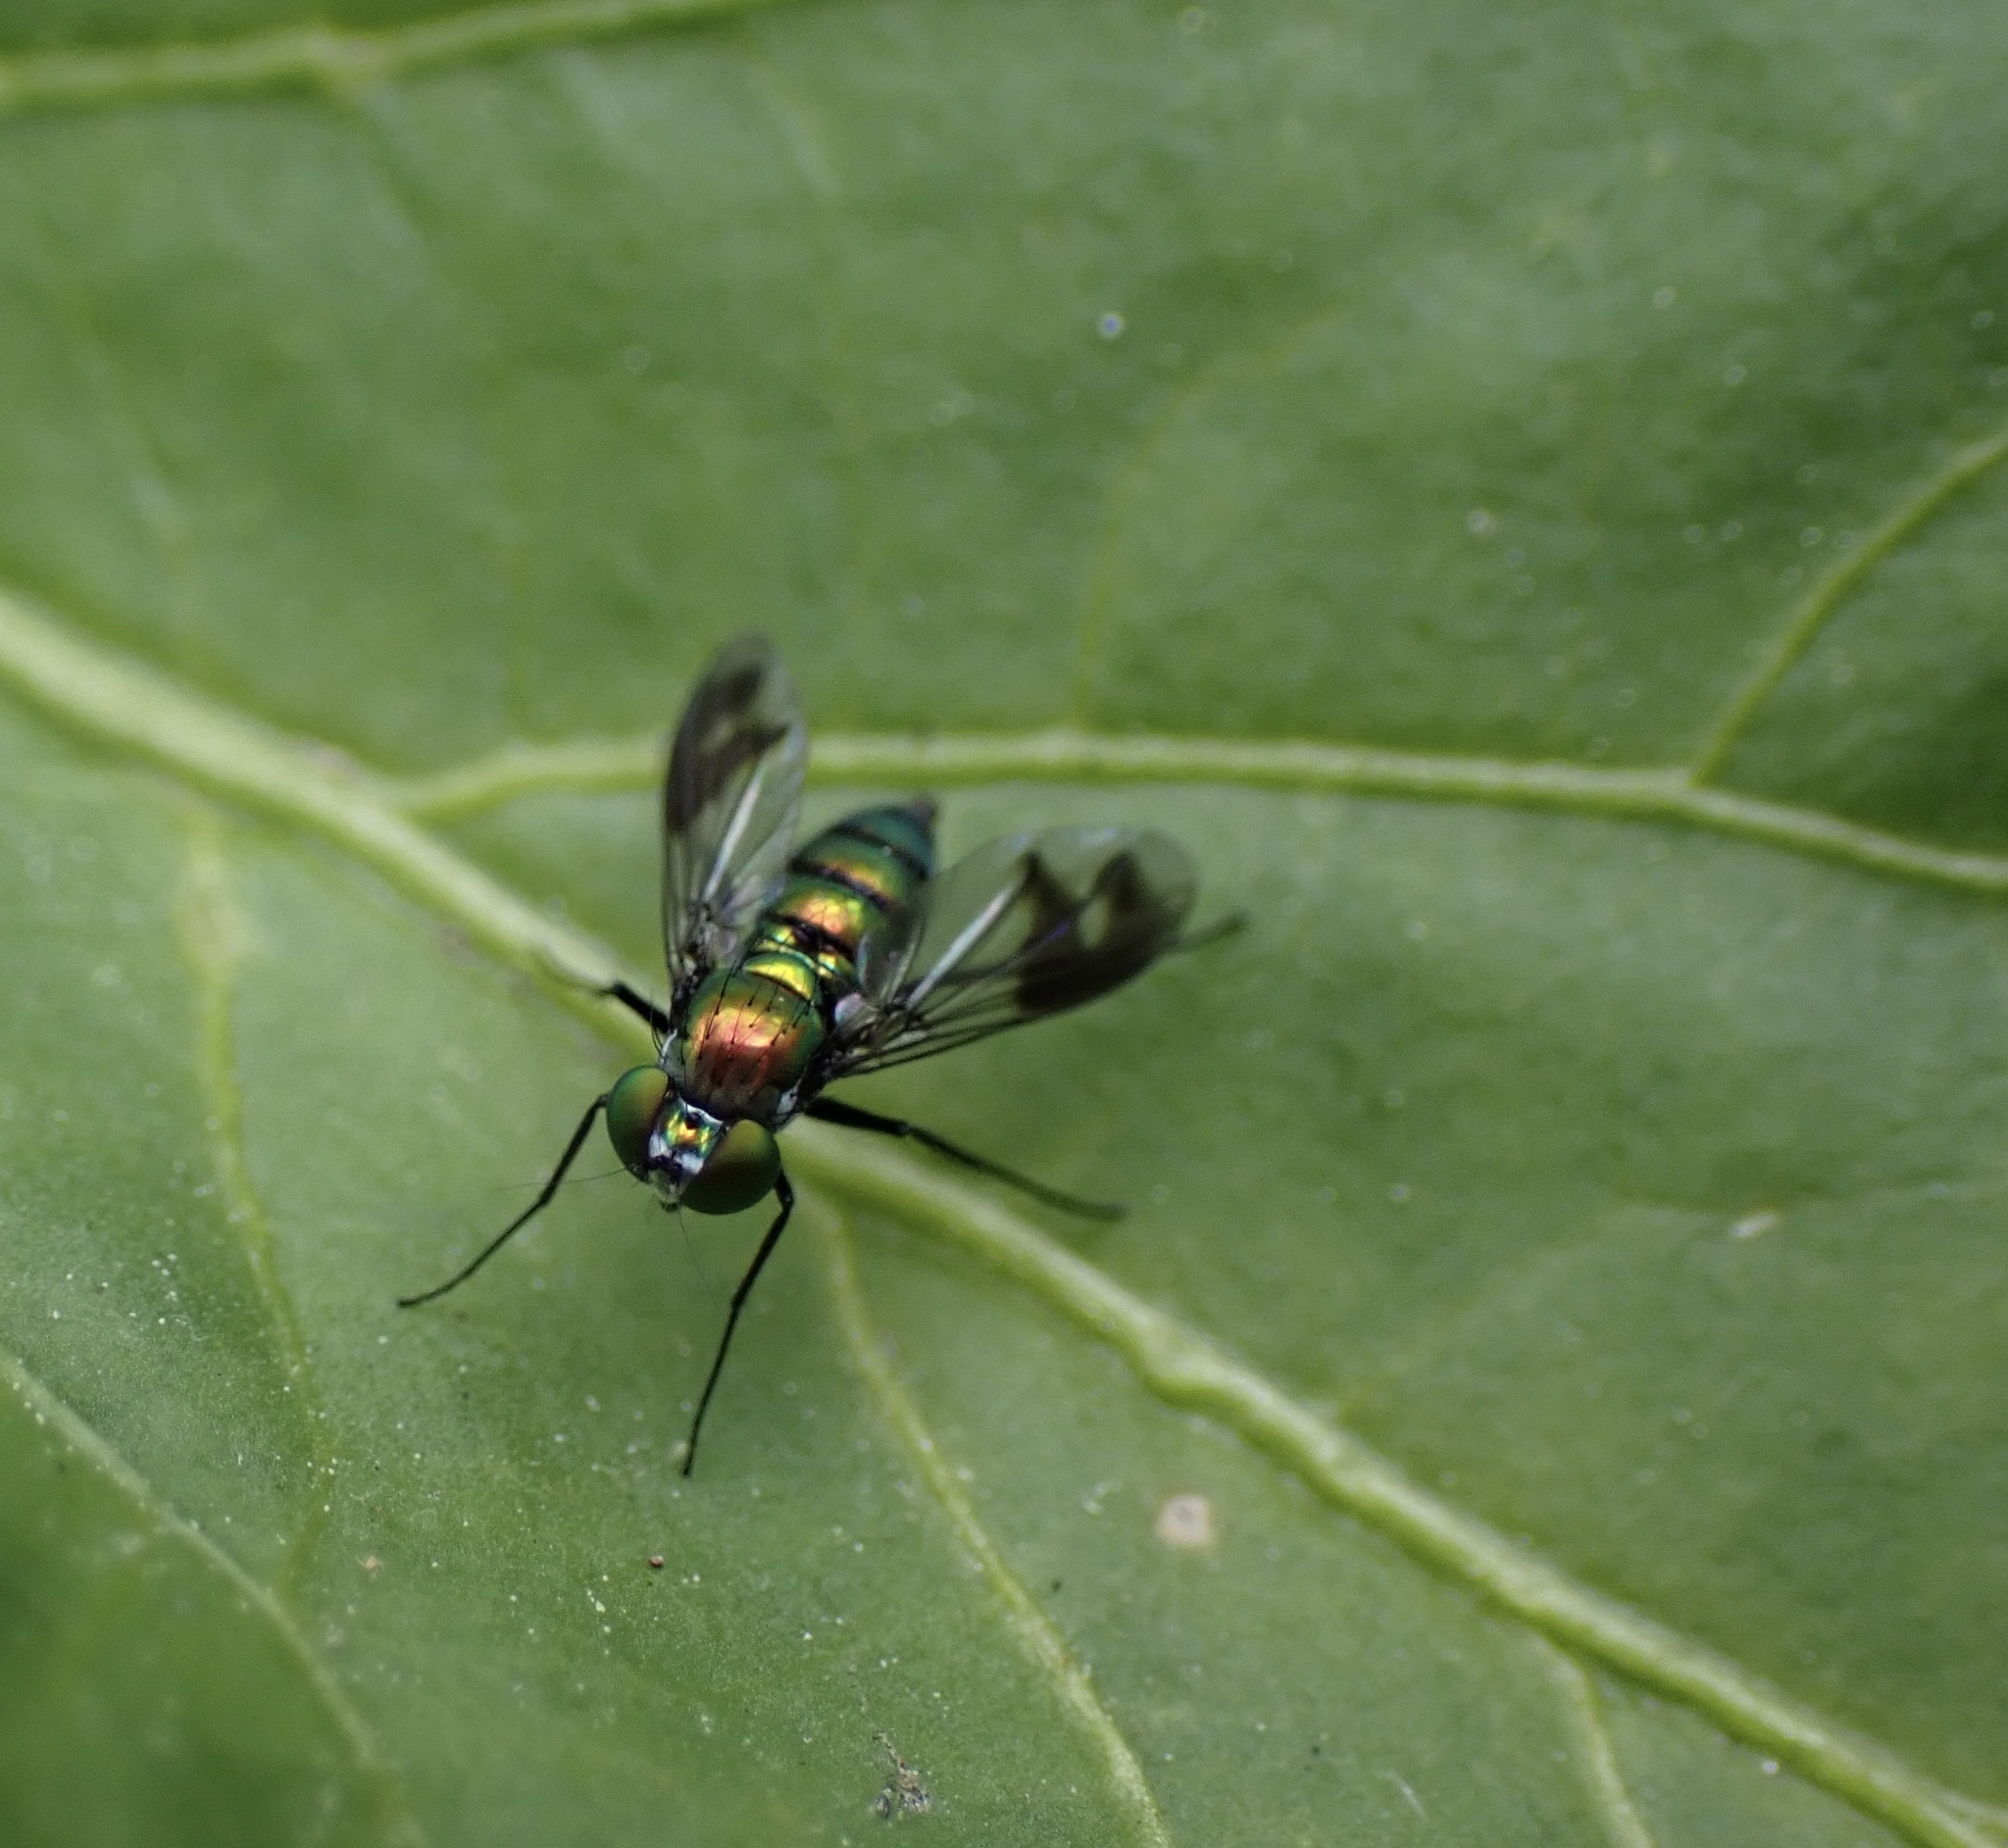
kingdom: Animalia
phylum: Arthropoda
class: Insecta
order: Diptera
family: Dolichopodidae
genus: Condylostylus
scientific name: Condylostylus patibulatus
